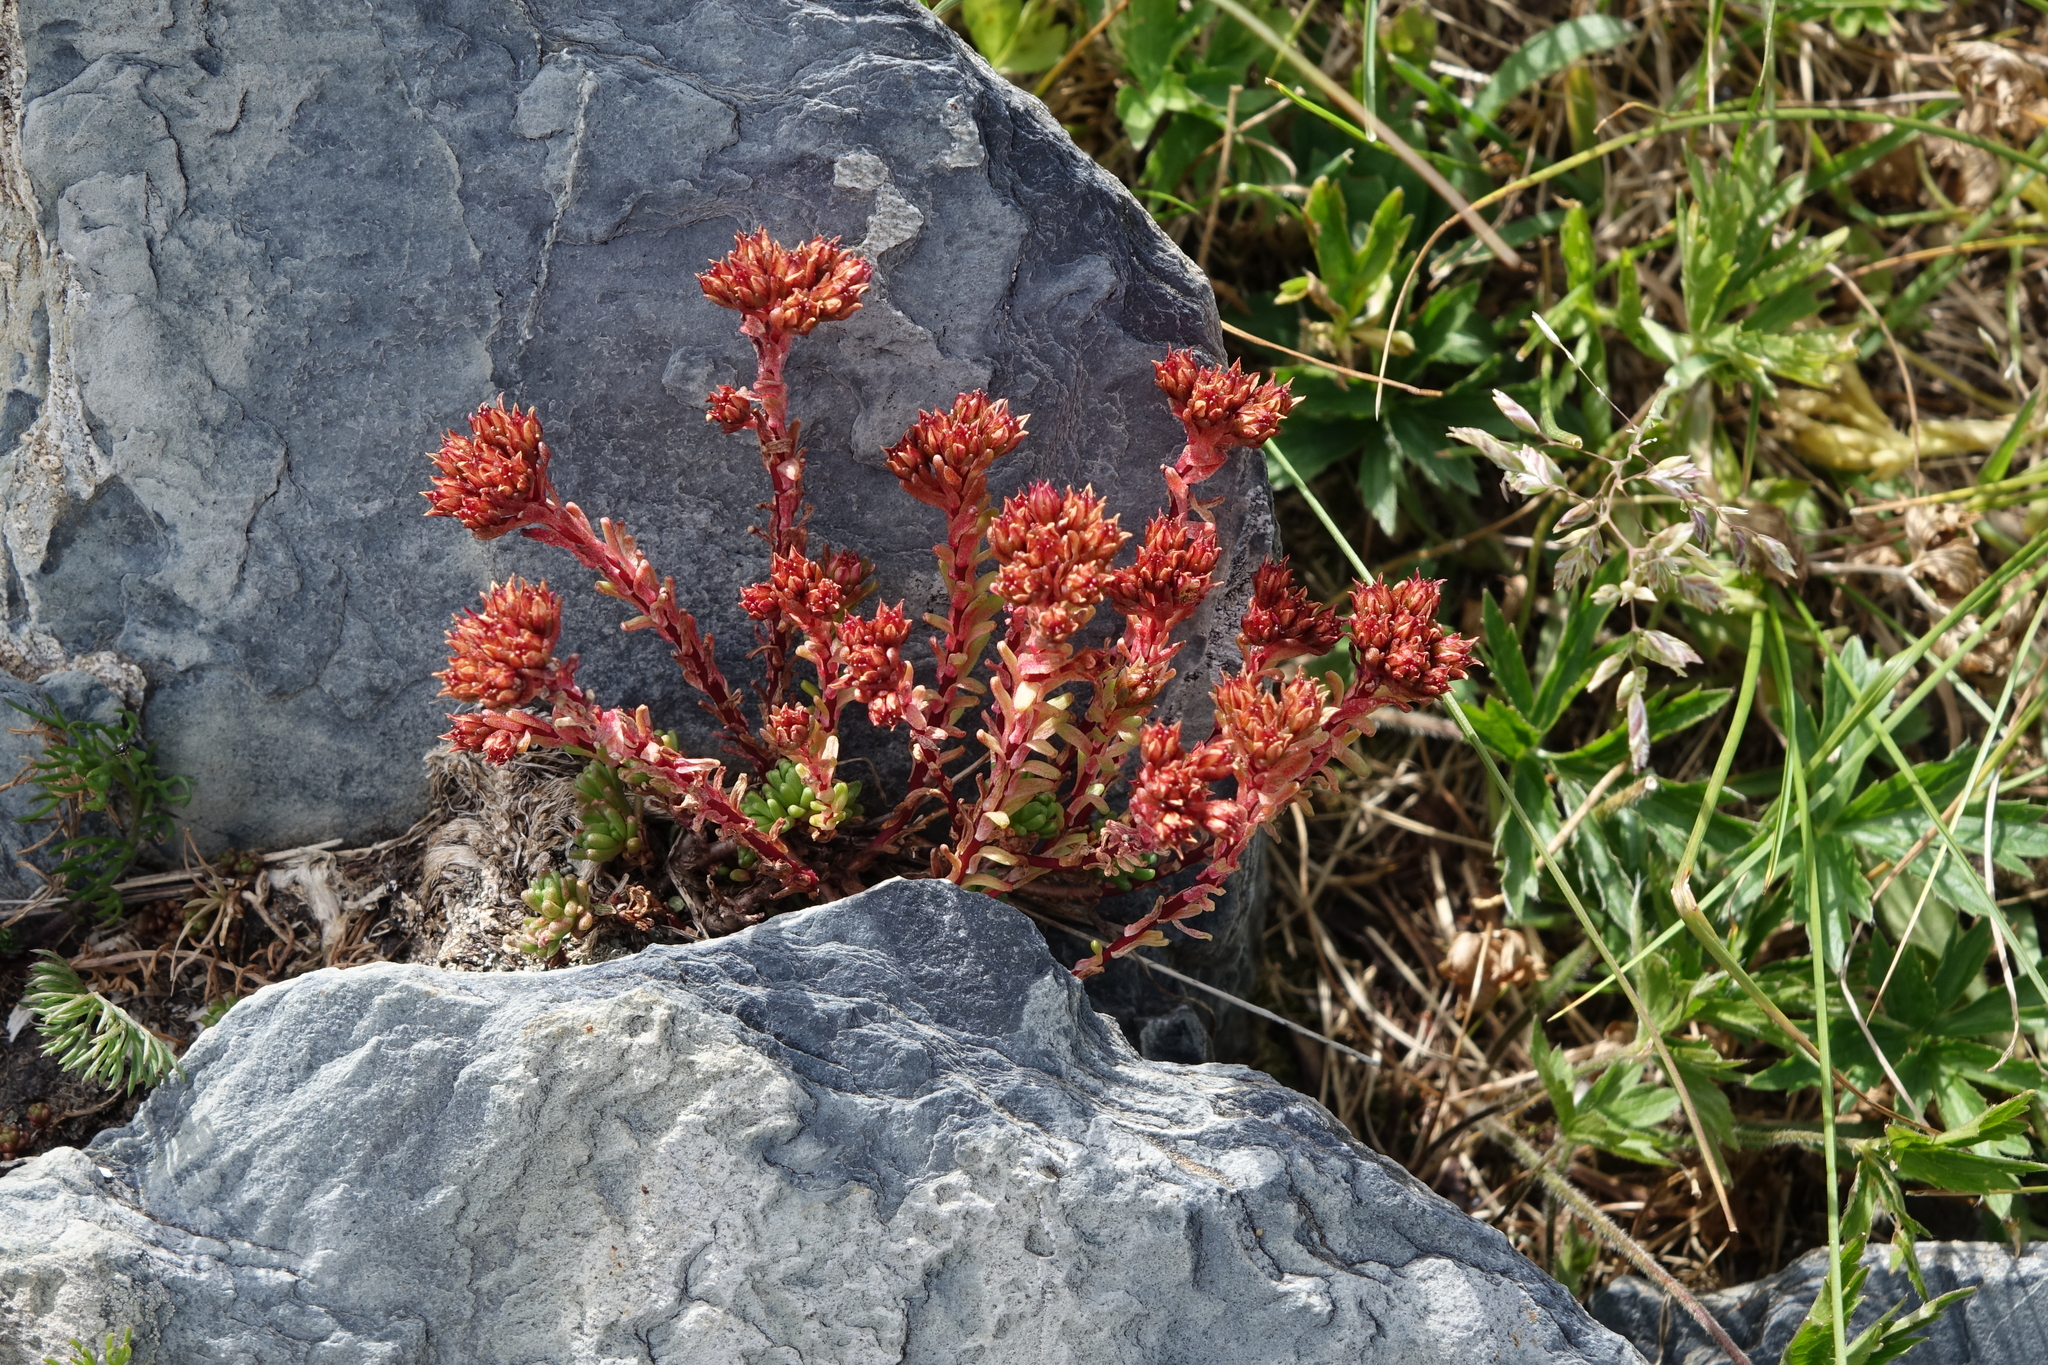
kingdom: Plantae
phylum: Tracheophyta
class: Magnoliopsida
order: Saxifragales
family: Crassulaceae
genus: Sedum
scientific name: Sedum tenellum
